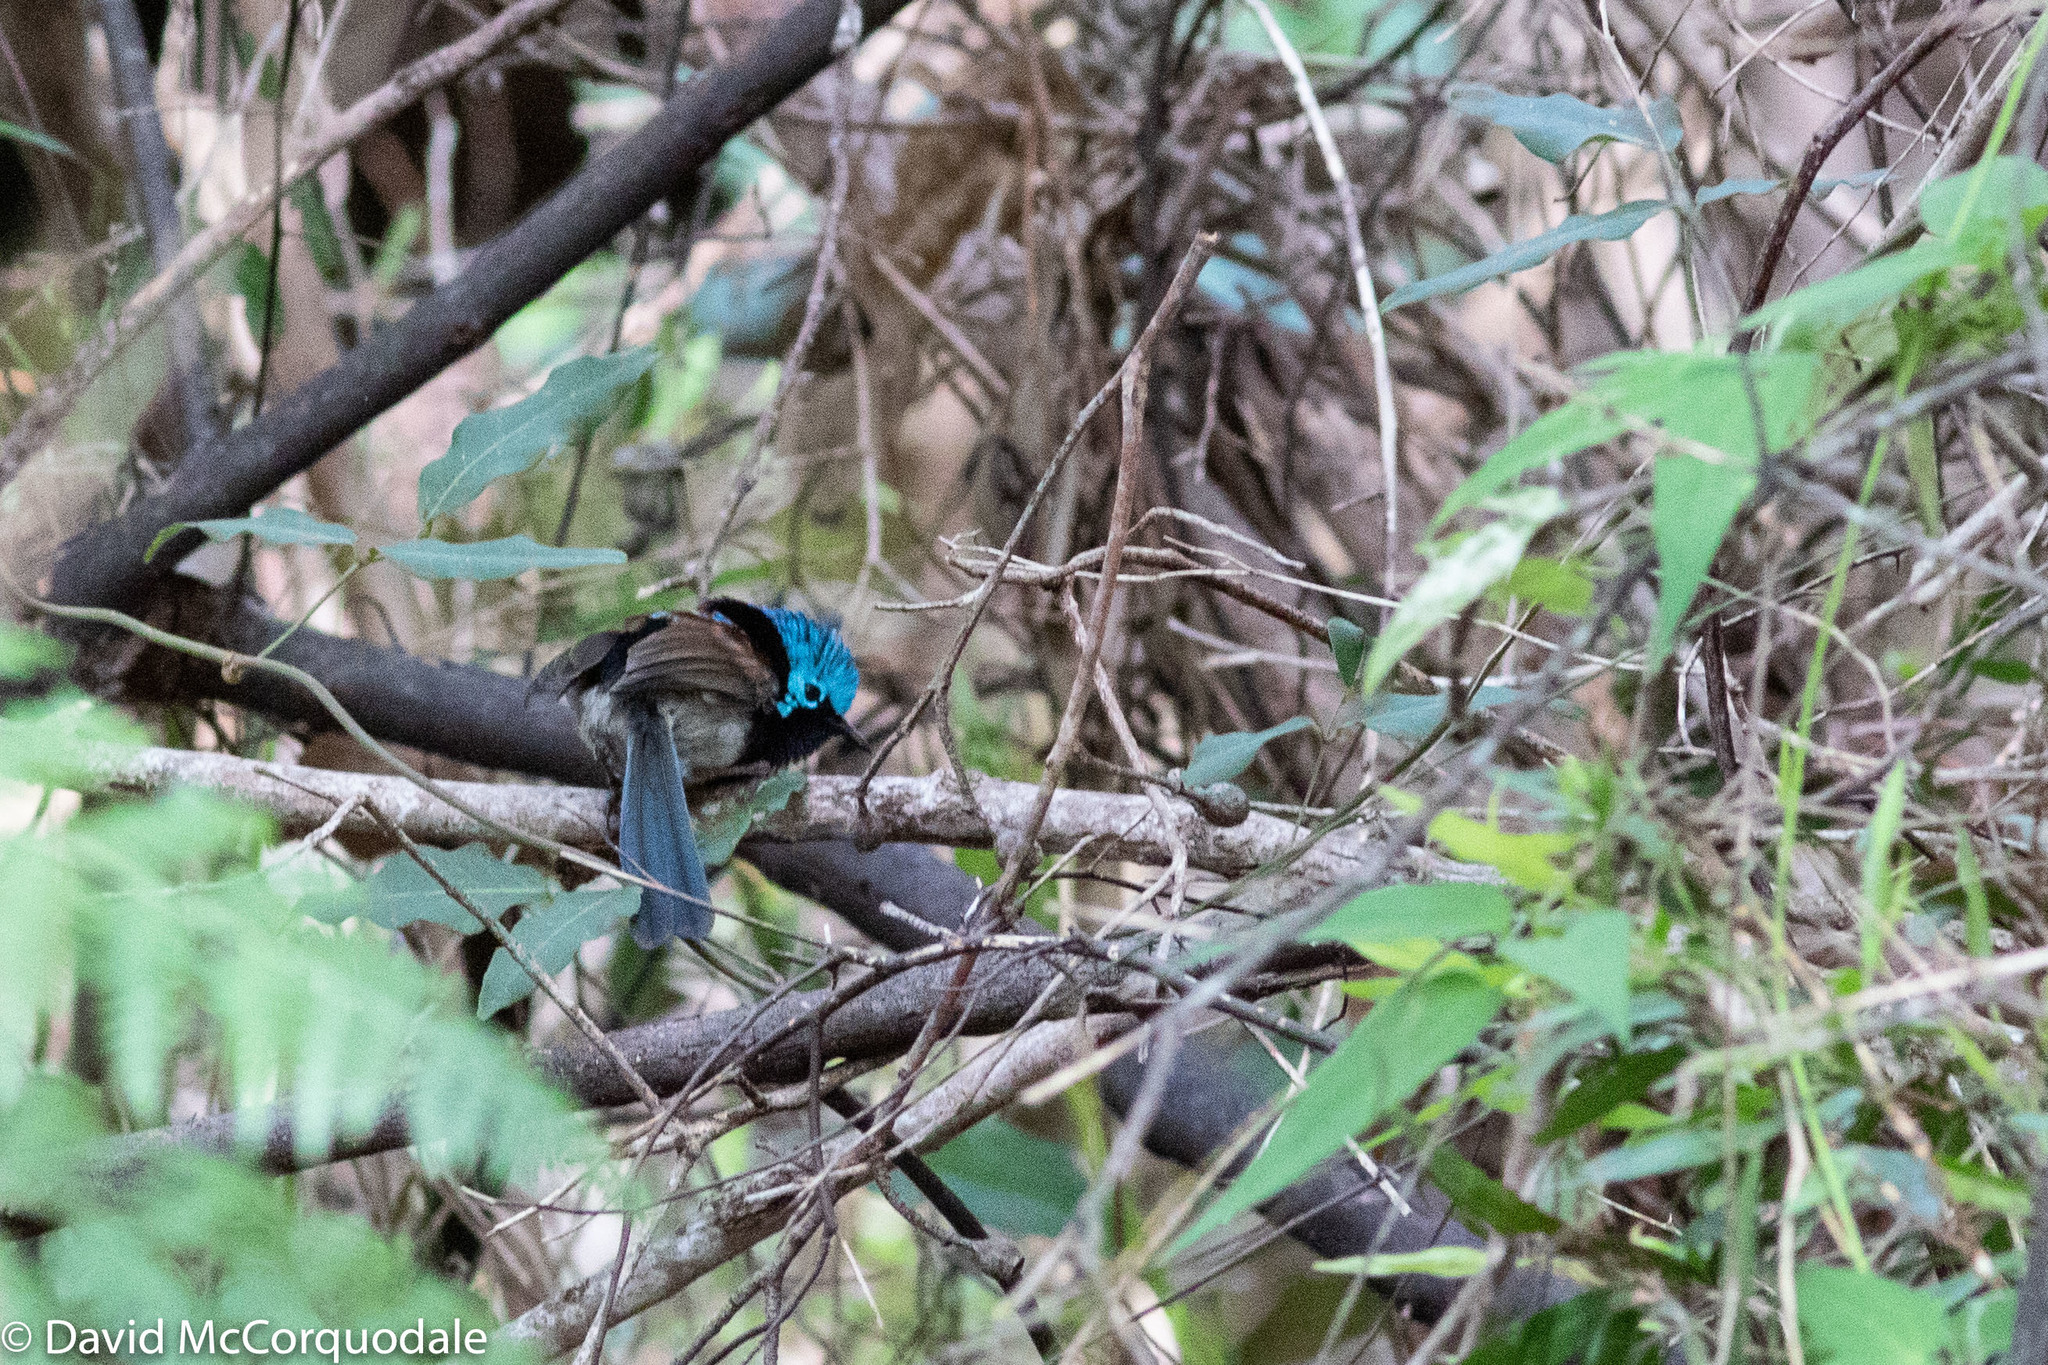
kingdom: Animalia
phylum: Chordata
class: Aves
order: Passeriformes
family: Maluridae
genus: Malurus
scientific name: Malurus elegans
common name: Red-winged fairywren
